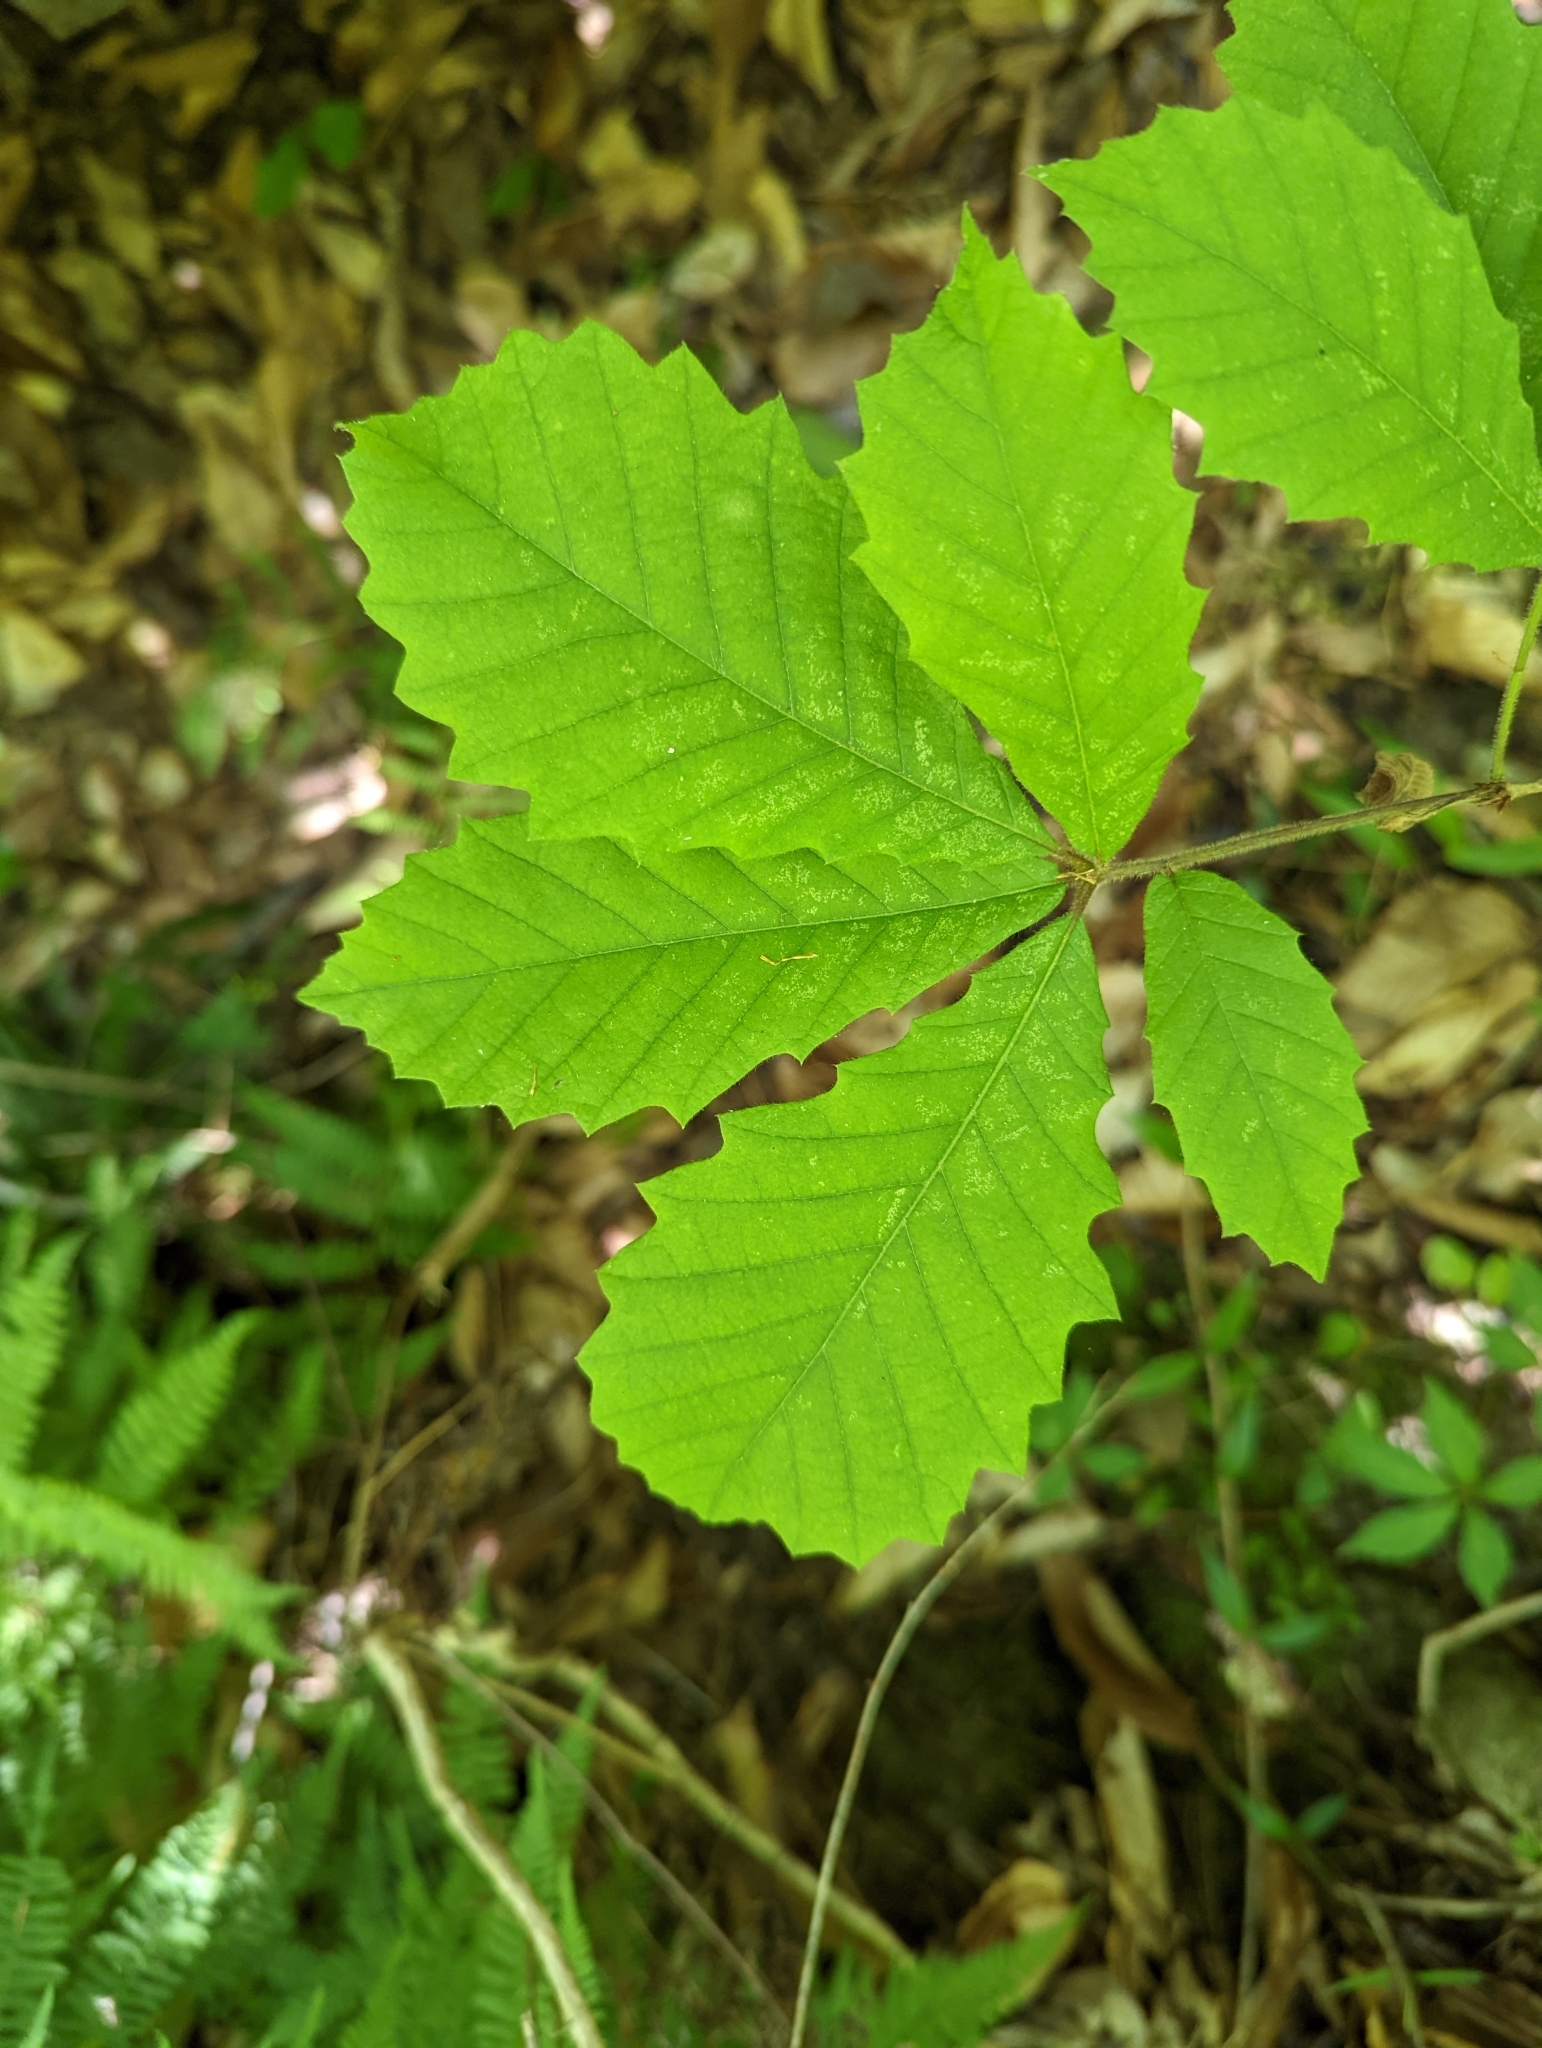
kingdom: Plantae
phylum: Tracheophyta
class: Magnoliopsida
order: Fagales
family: Fagaceae
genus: Quercus
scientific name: Quercus michauxii
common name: Swamp chestnut oak
